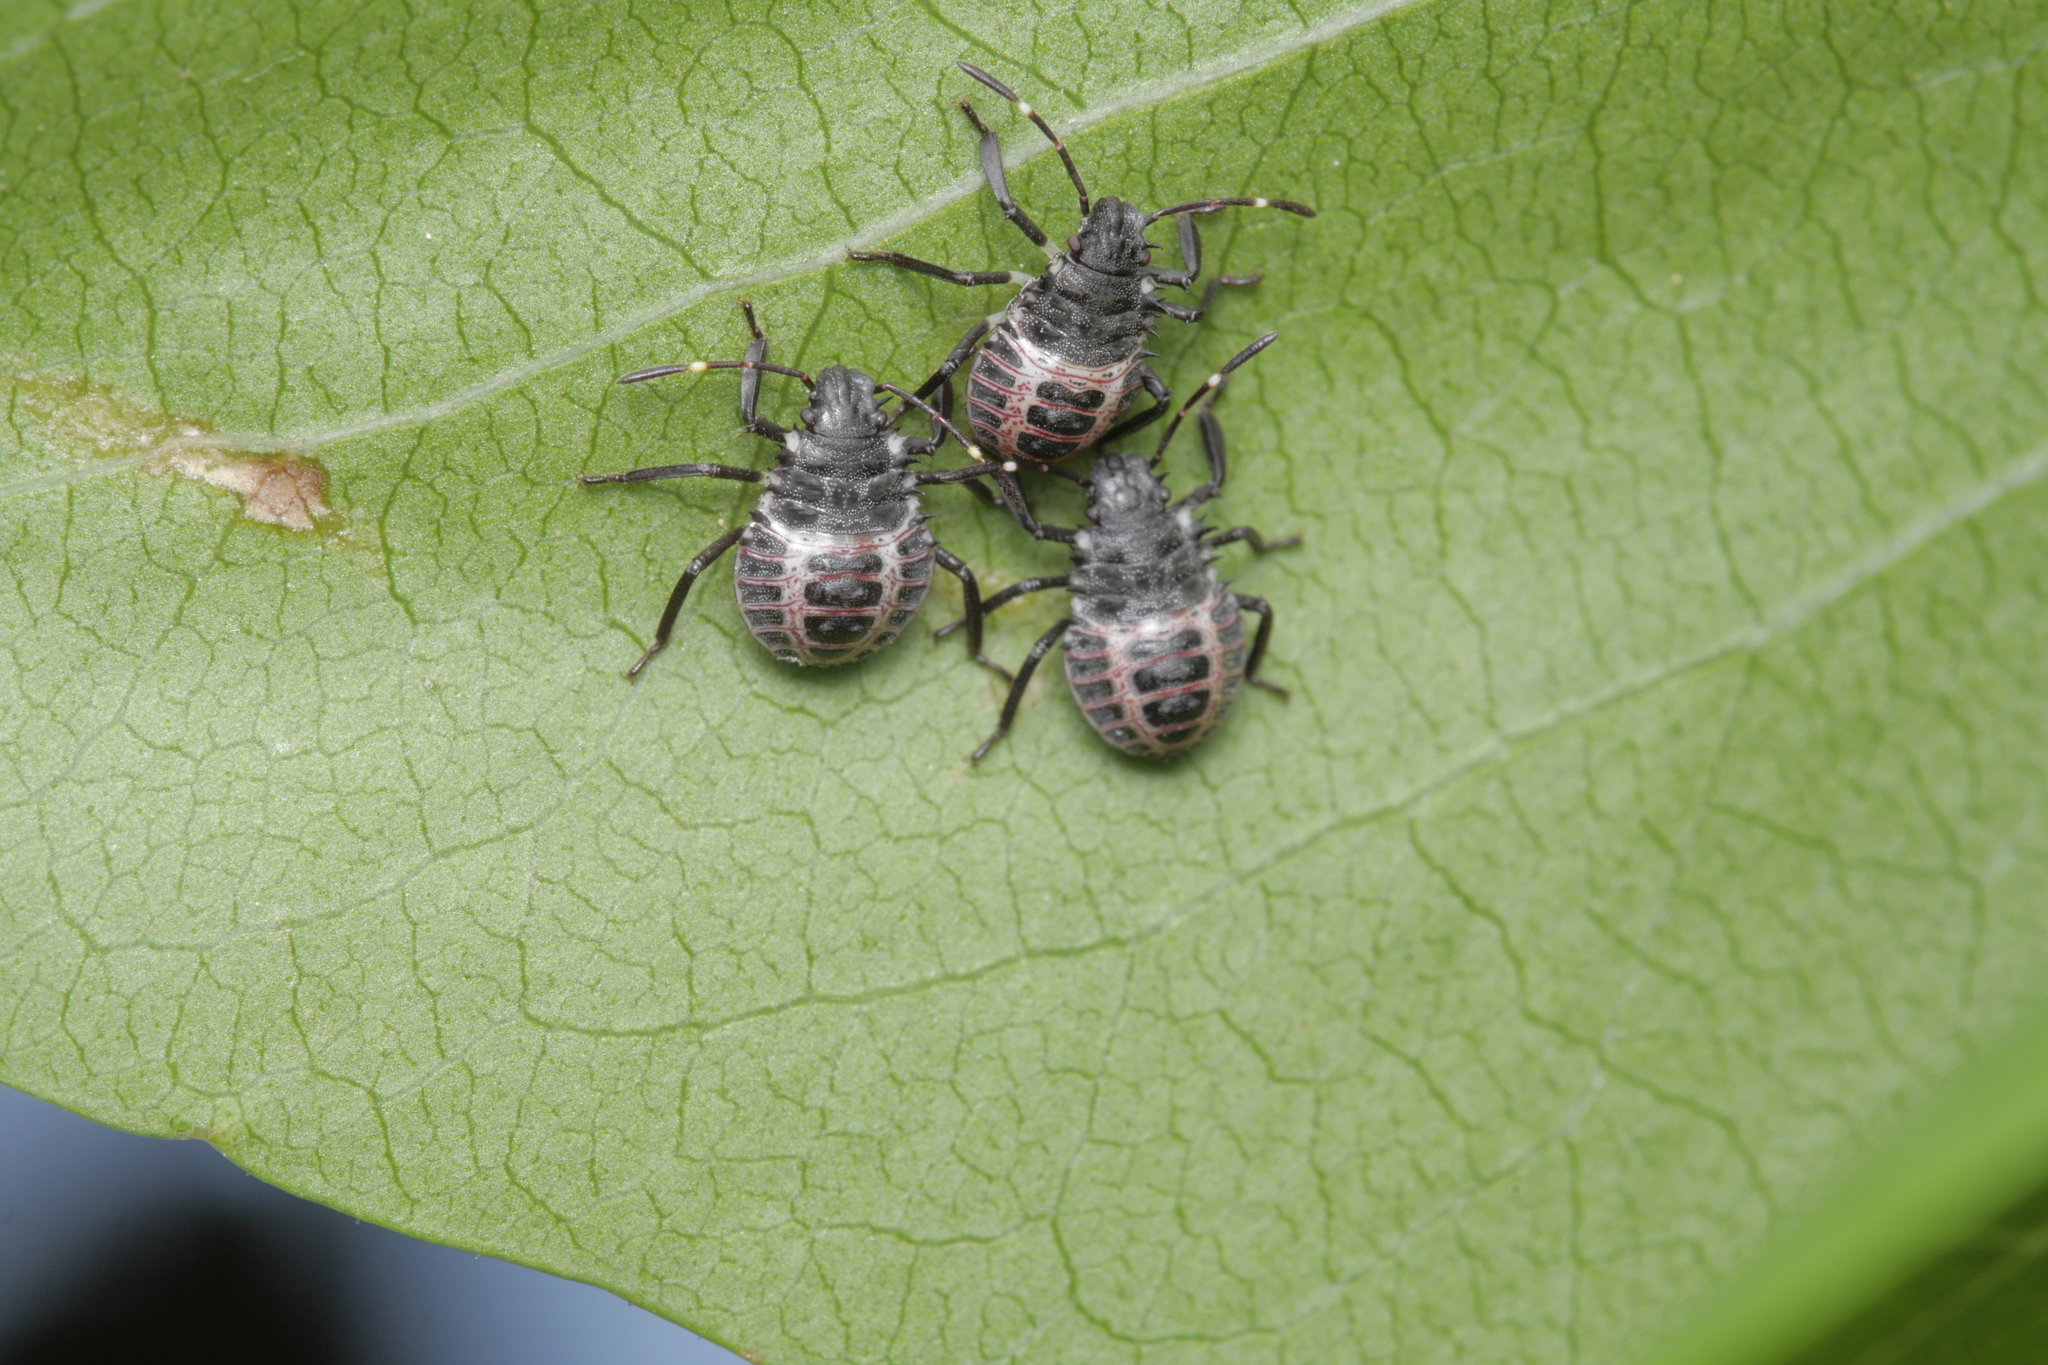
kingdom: Animalia
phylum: Arthropoda
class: Insecta
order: Hemiptera
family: Pentatomidae
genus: Halyomorpha
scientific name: Halyomorpha halys
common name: Brown marmorated stink bug
